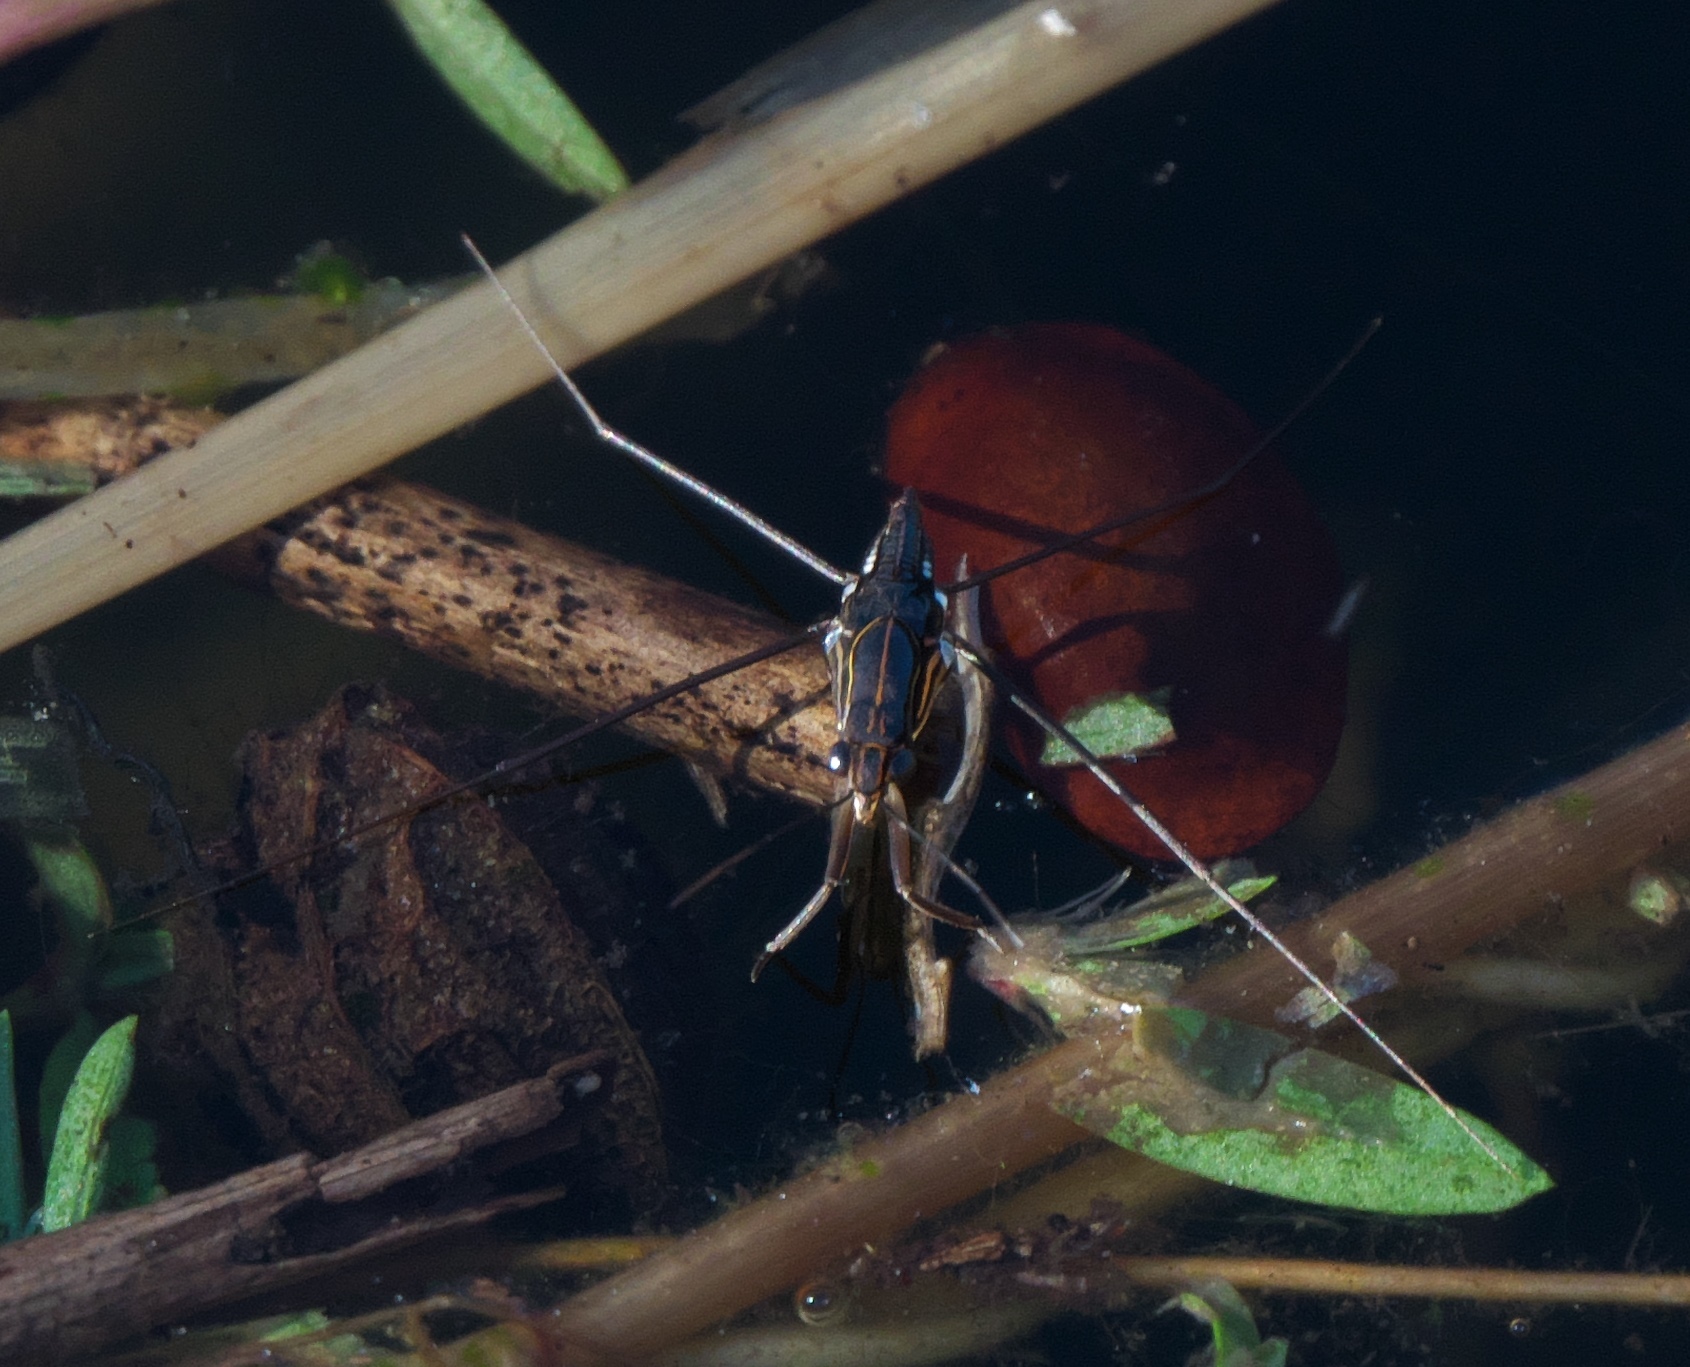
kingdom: Animalia
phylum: Arthropoda
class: Insecta
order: Hemiptera
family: Gerridae
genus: Limnogonus
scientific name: Limnogonus recens
